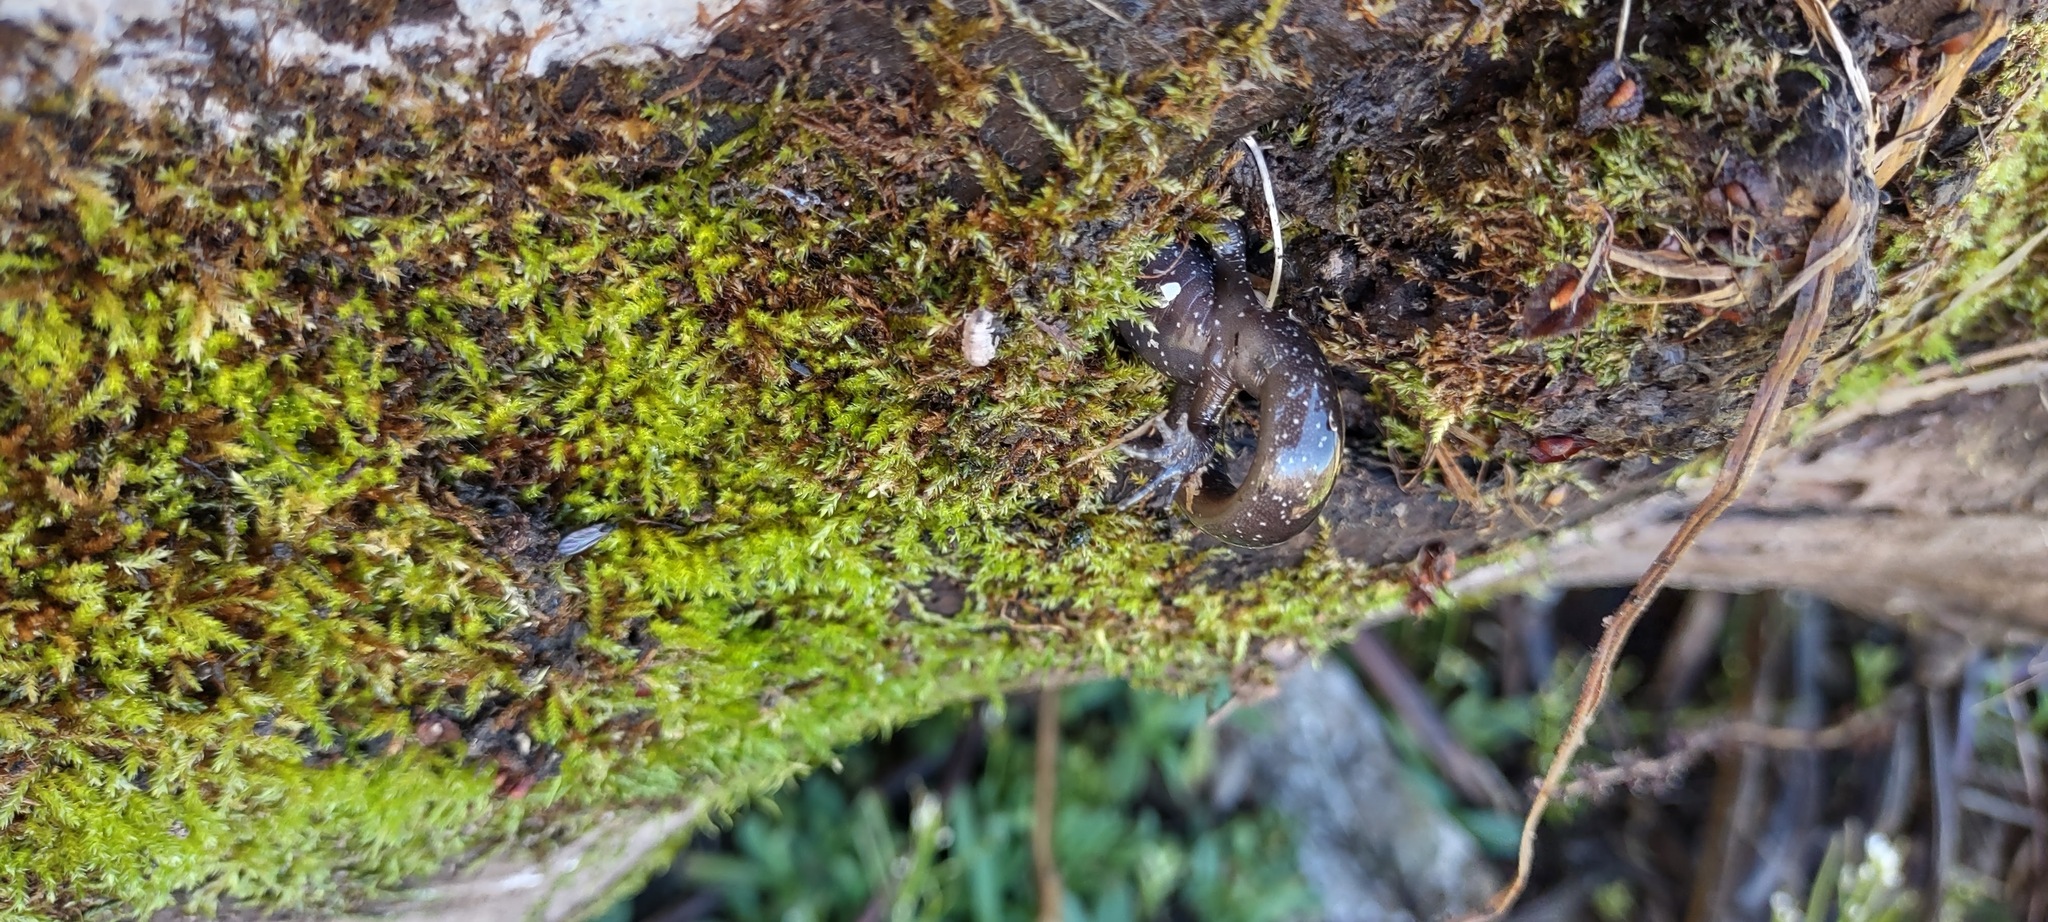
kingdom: Animalia
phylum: Chordata
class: Amphibia
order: Caudata
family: Ambystomatidae
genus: Ambystoma
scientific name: Ambystoma macrodactylum
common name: Long-toed salamander
